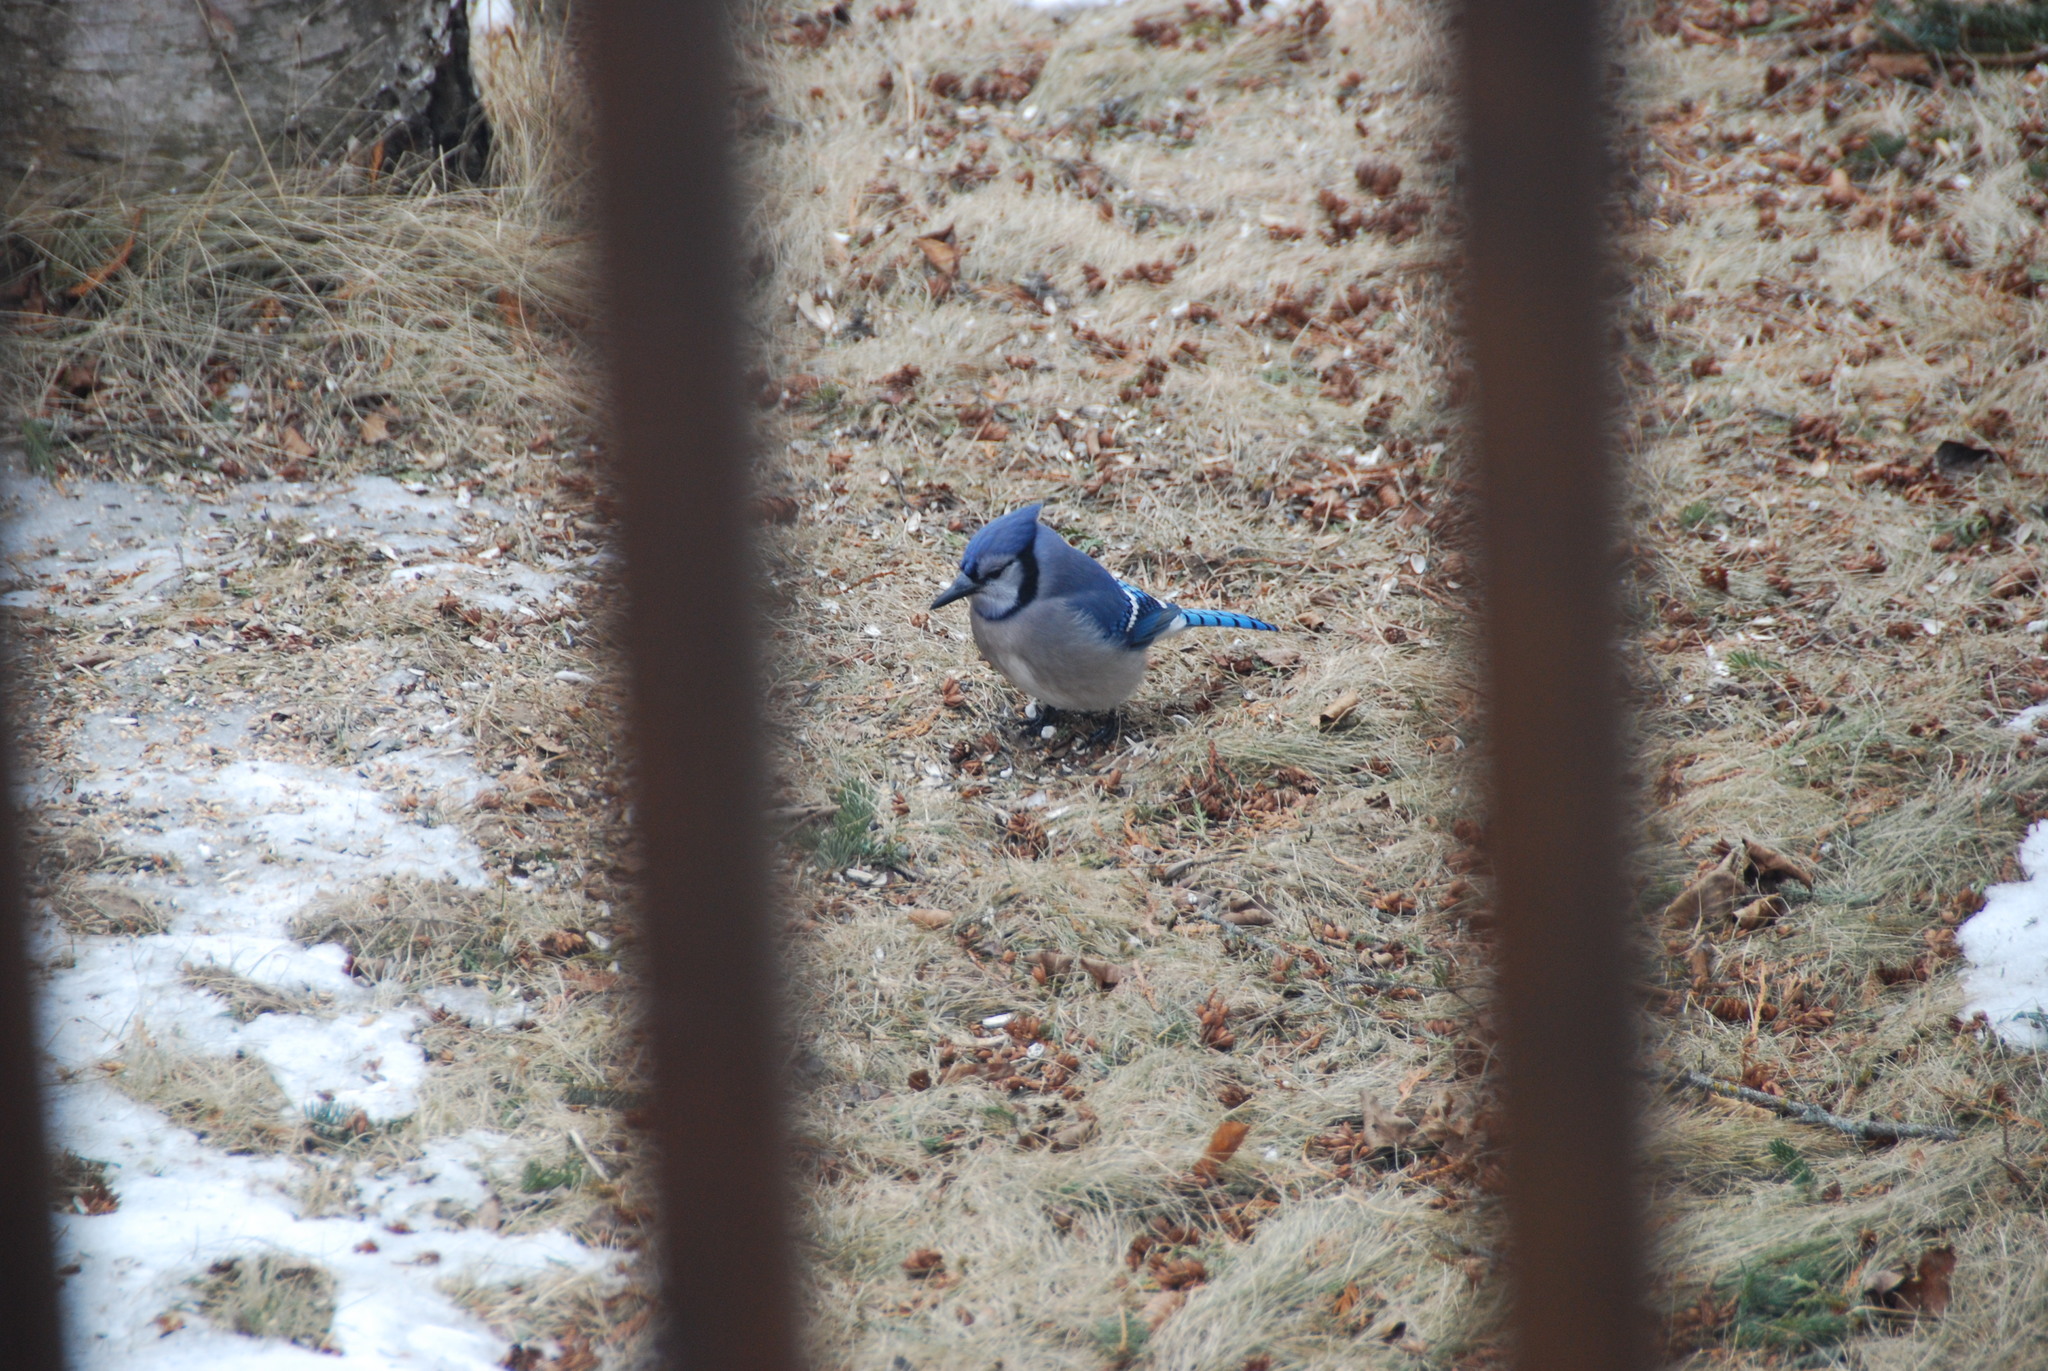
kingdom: Animalia
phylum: Chordata
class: Aves
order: Passeriformes
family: Corvidae
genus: Cyanocitta
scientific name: Cyanocitta cristata
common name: Blue jay
